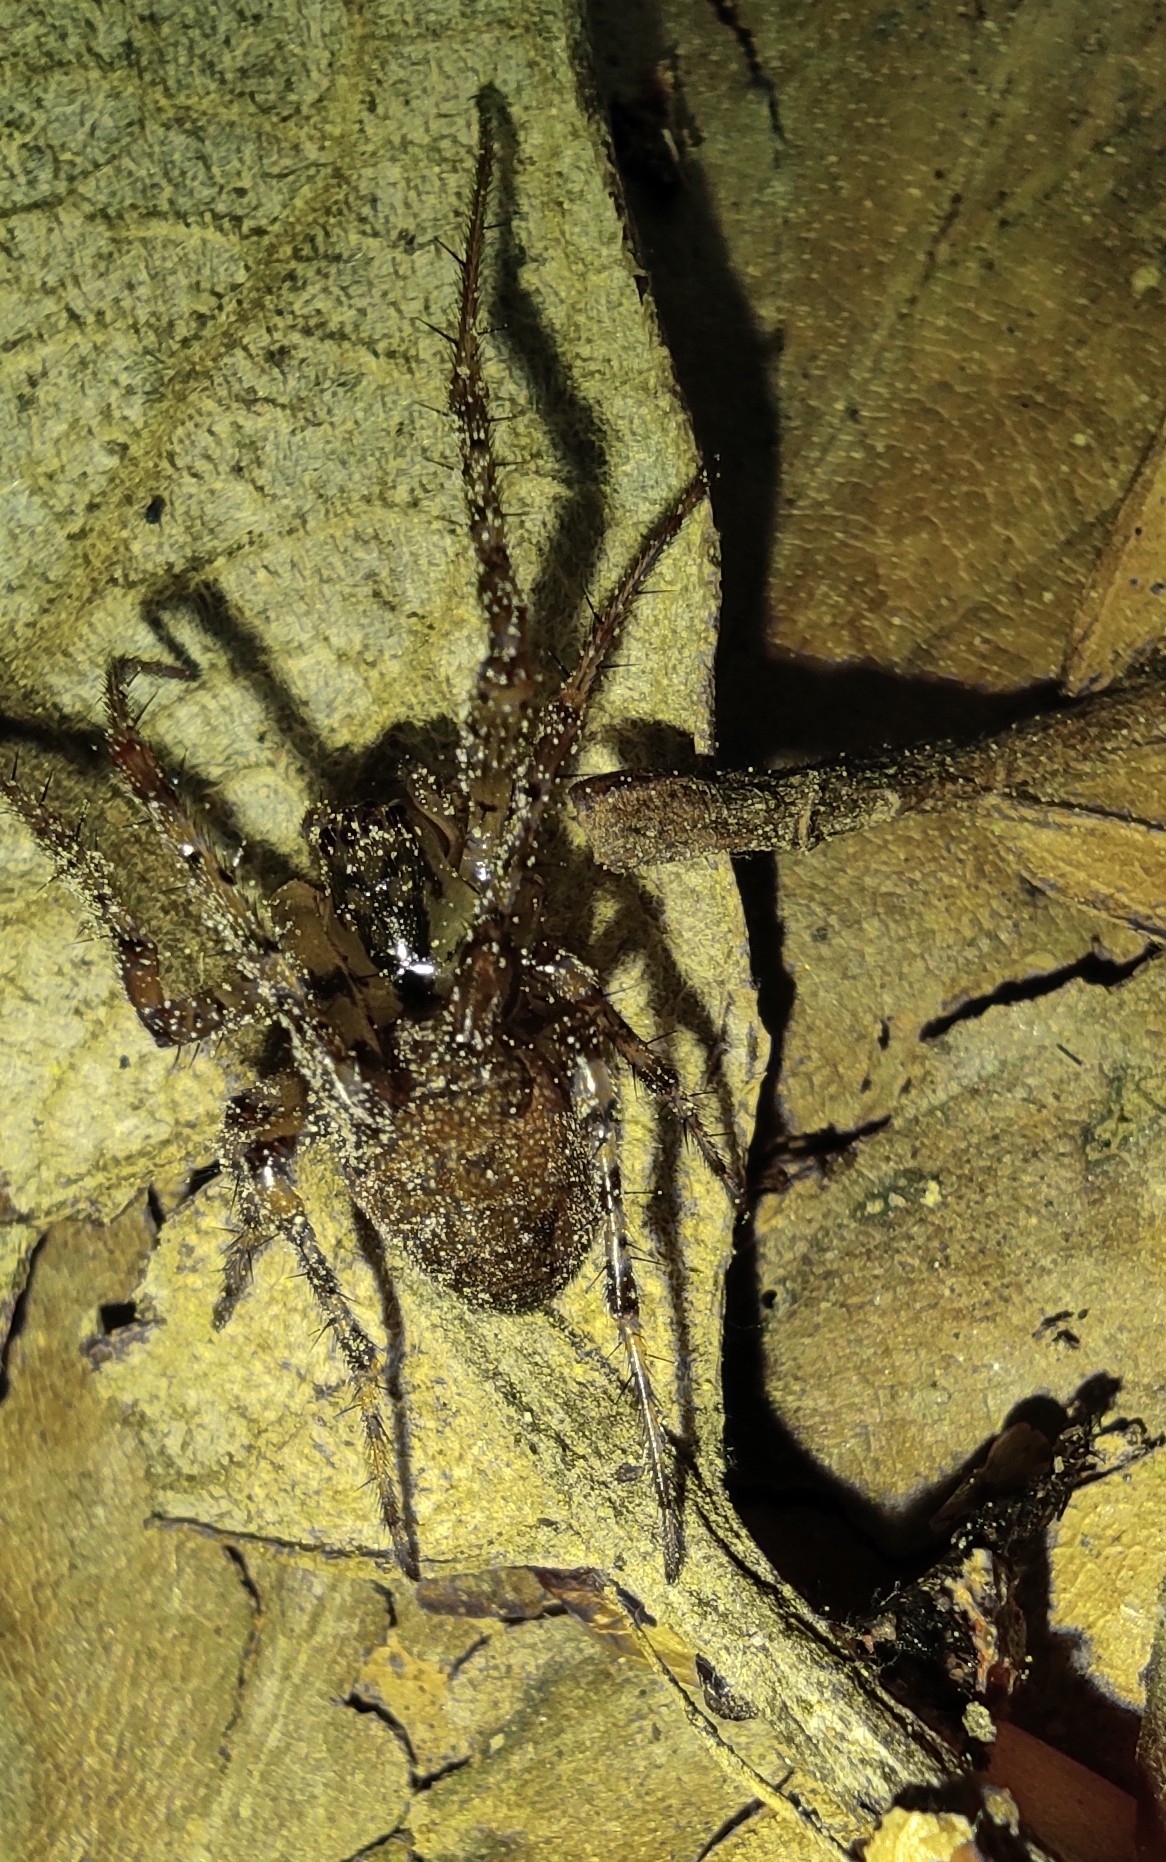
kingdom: Animalia
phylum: Arthropoda
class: Arachnida
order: Araneae
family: Tetragnathidae
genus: Metellina
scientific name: Metellina merianae
